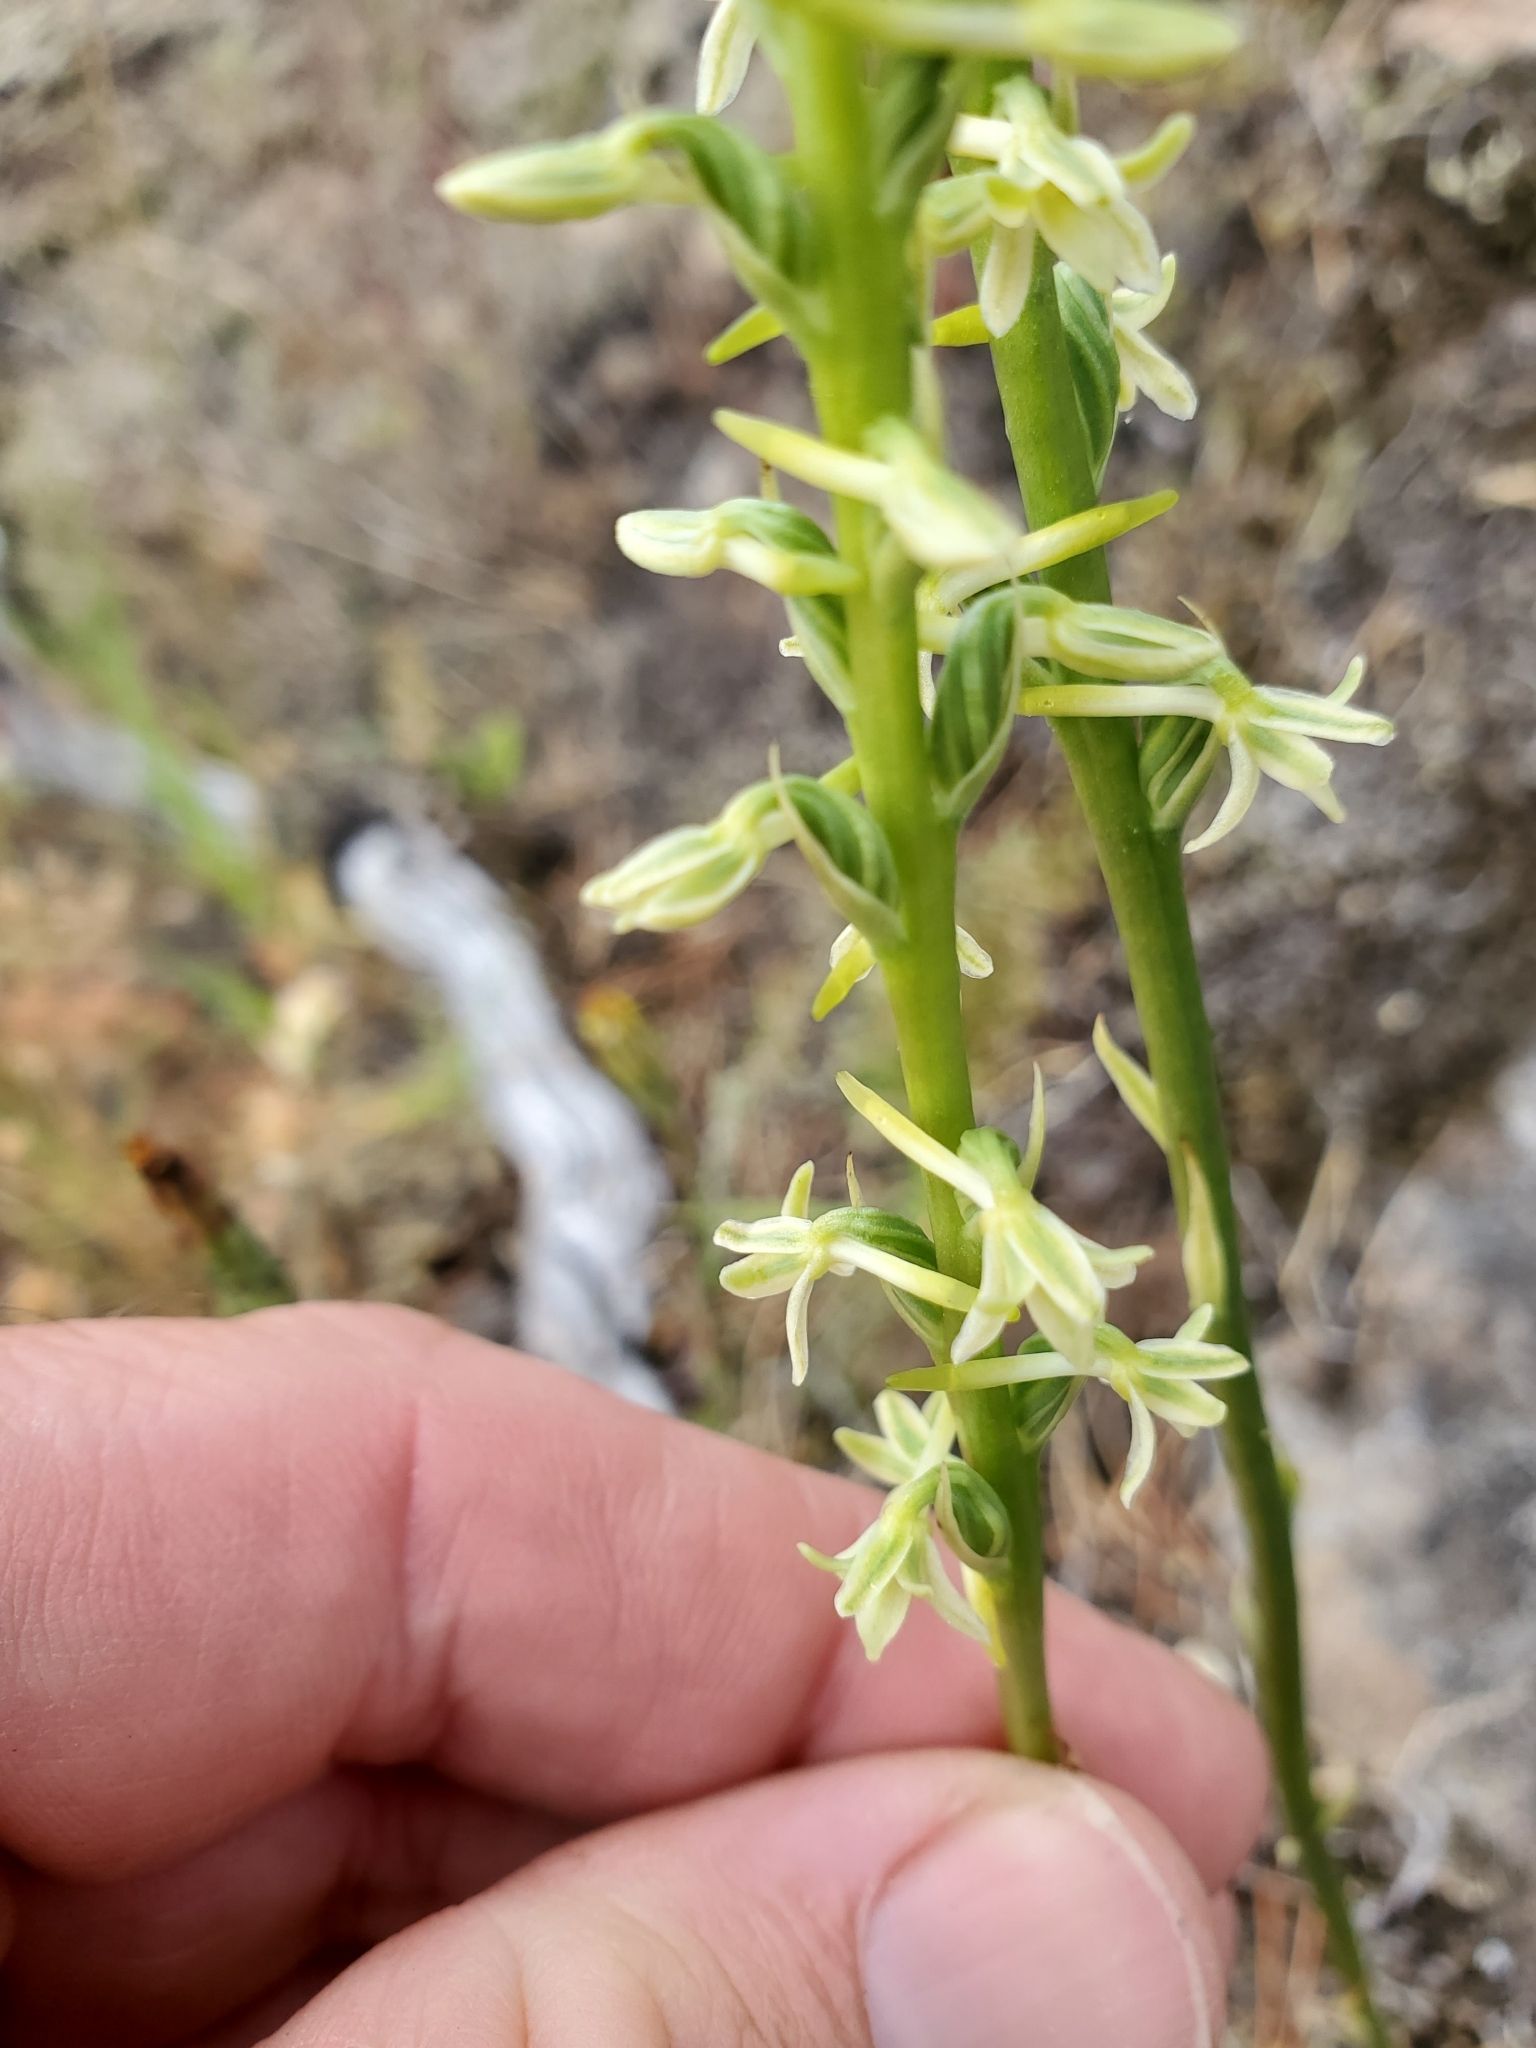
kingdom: Plantae
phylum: Tracheophyta
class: Liliopsida
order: Asparagales
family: Orchidaceae
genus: Platanthera
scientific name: Platanthera transversa
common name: Royal rein orchid
